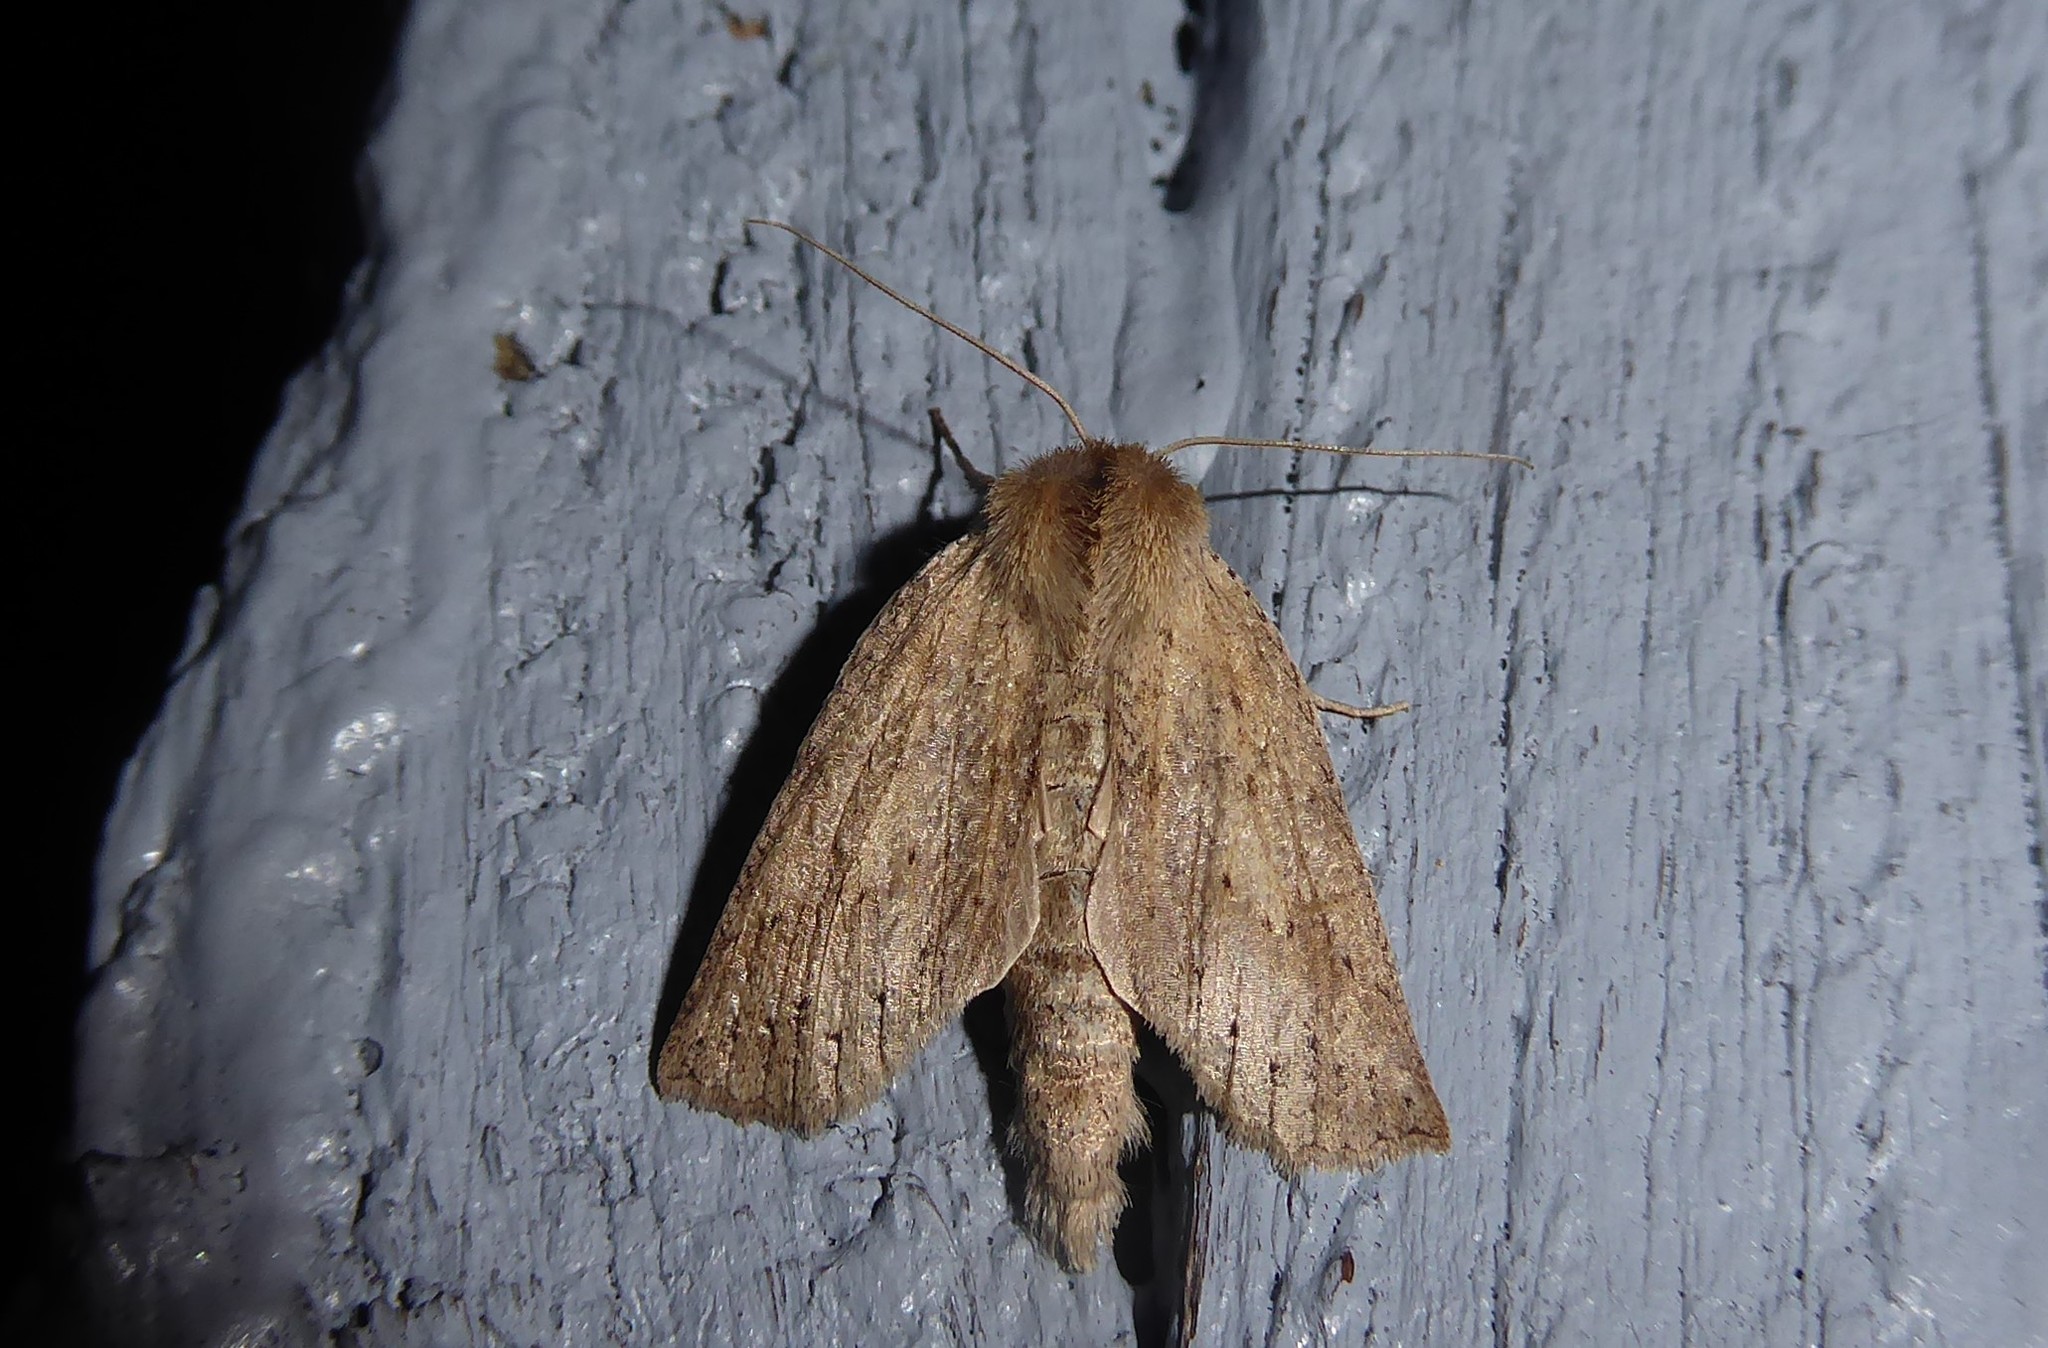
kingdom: Animalia
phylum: Arthropoda
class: Insecta
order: Lepidoptera
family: Geometridae
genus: Declana
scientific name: Declana leptomera
